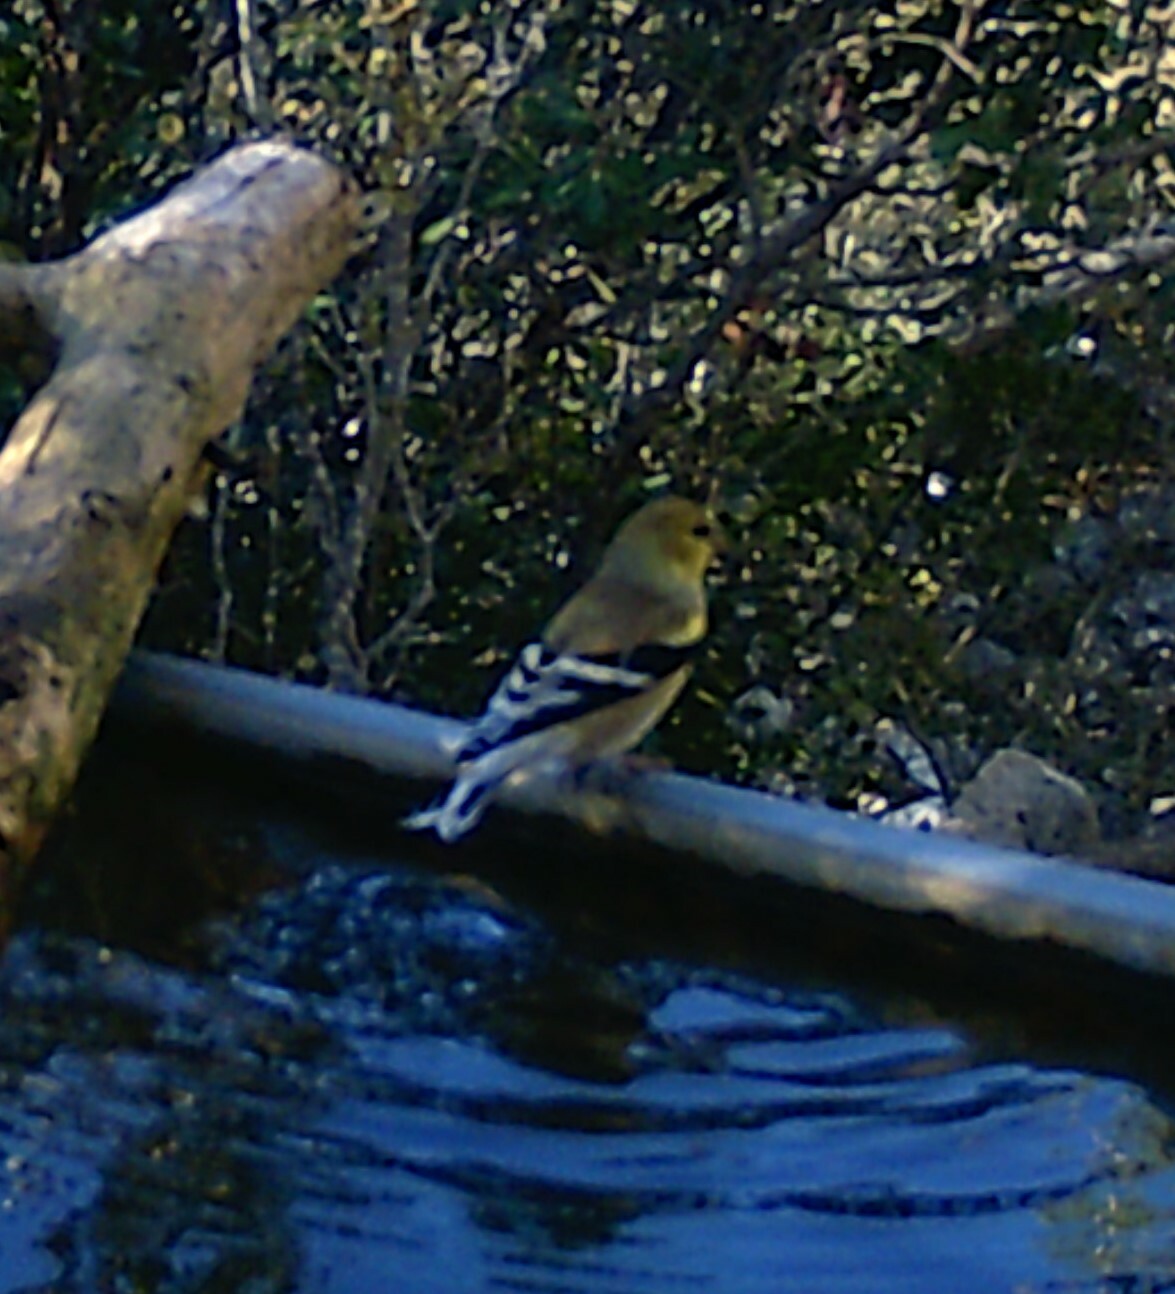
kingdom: Animalia
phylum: Chordata
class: Aves
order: Passeriformes
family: Fringillidae
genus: Spinus
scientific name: Spinus tristis
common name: American goldfinch
